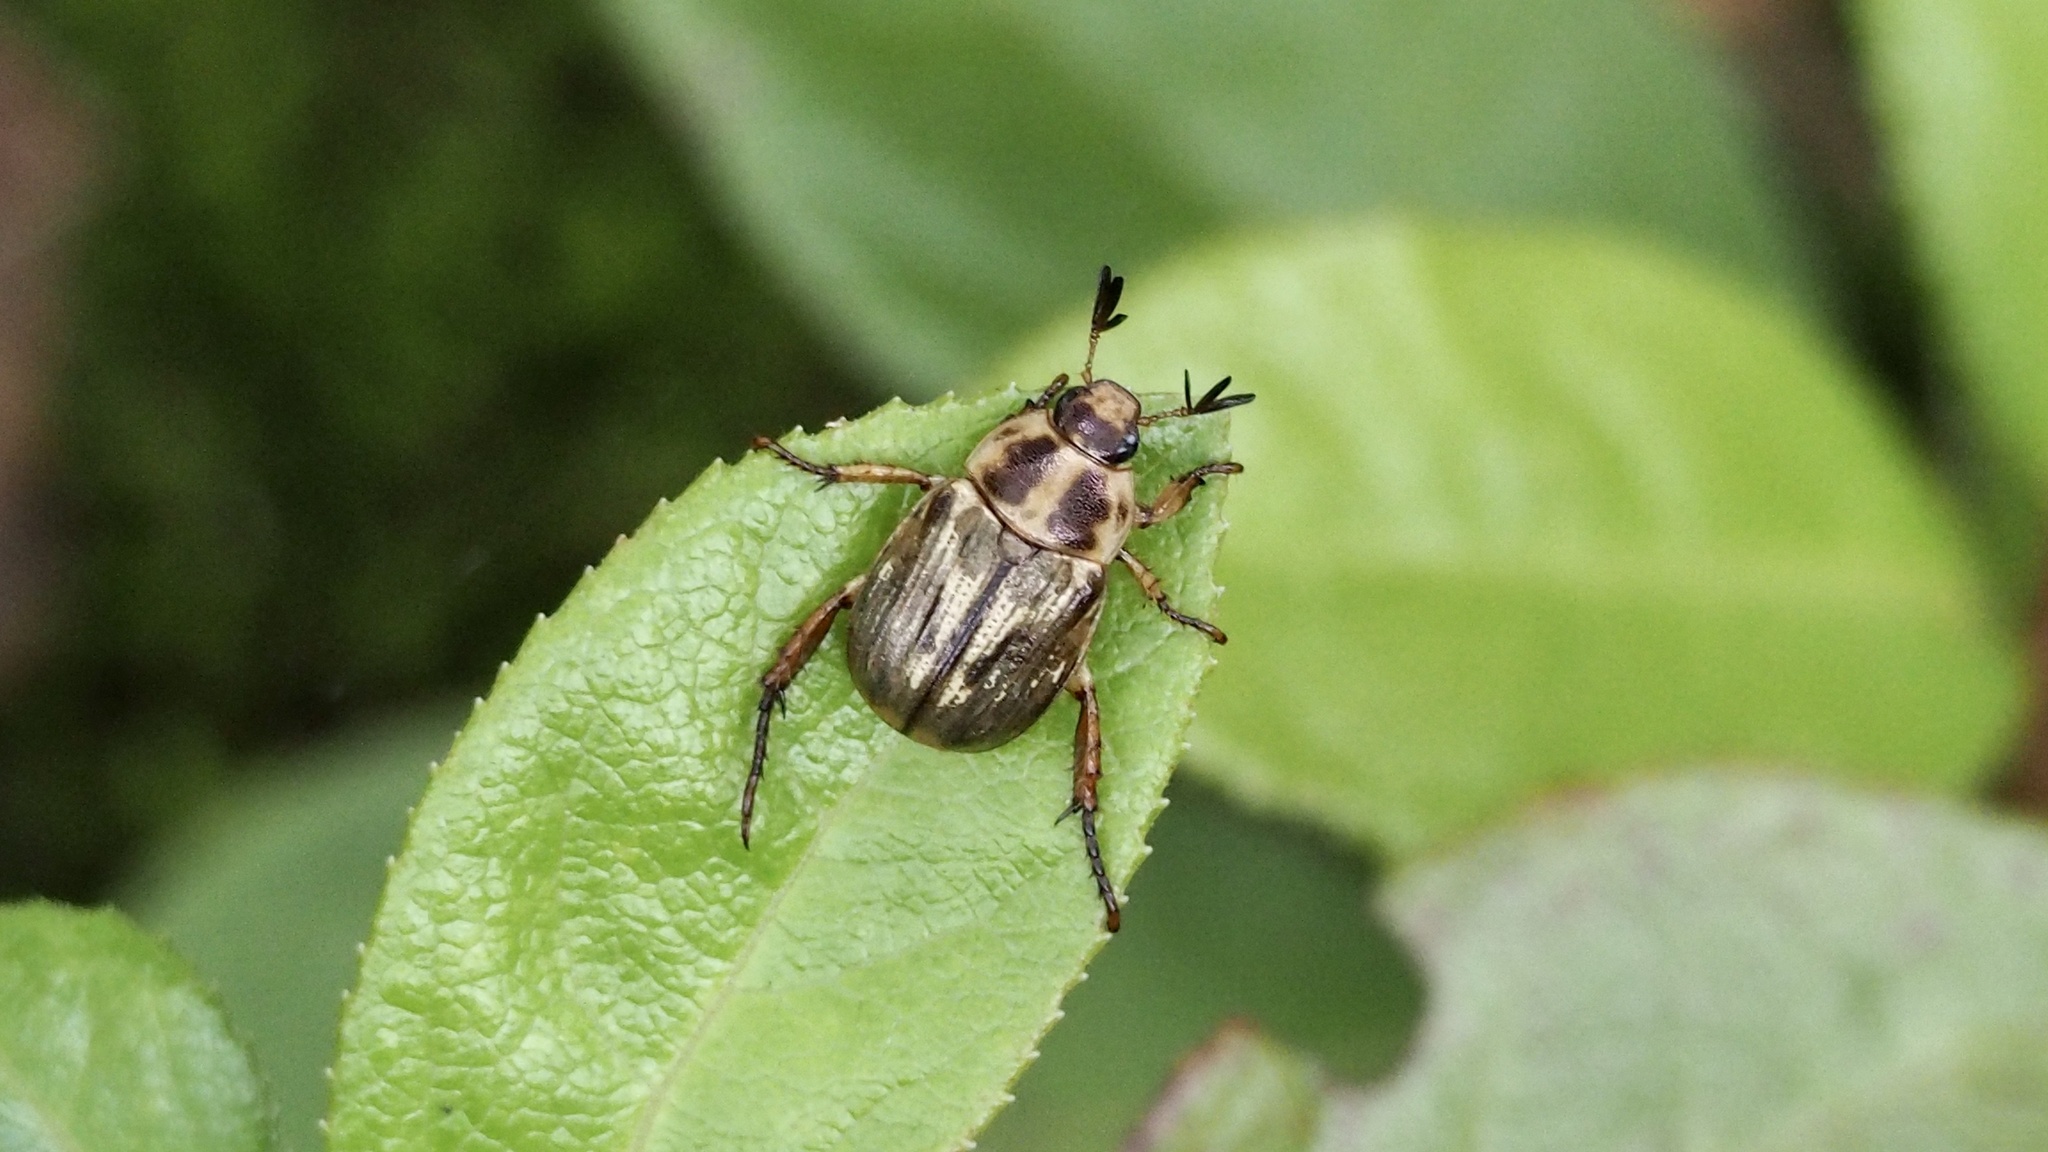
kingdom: Animalia
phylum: Arthropoda
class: Insecta
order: Coleoptera
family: Scarabaeidae
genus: Exomala
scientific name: Exomala orientalis
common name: Oriental beetle
